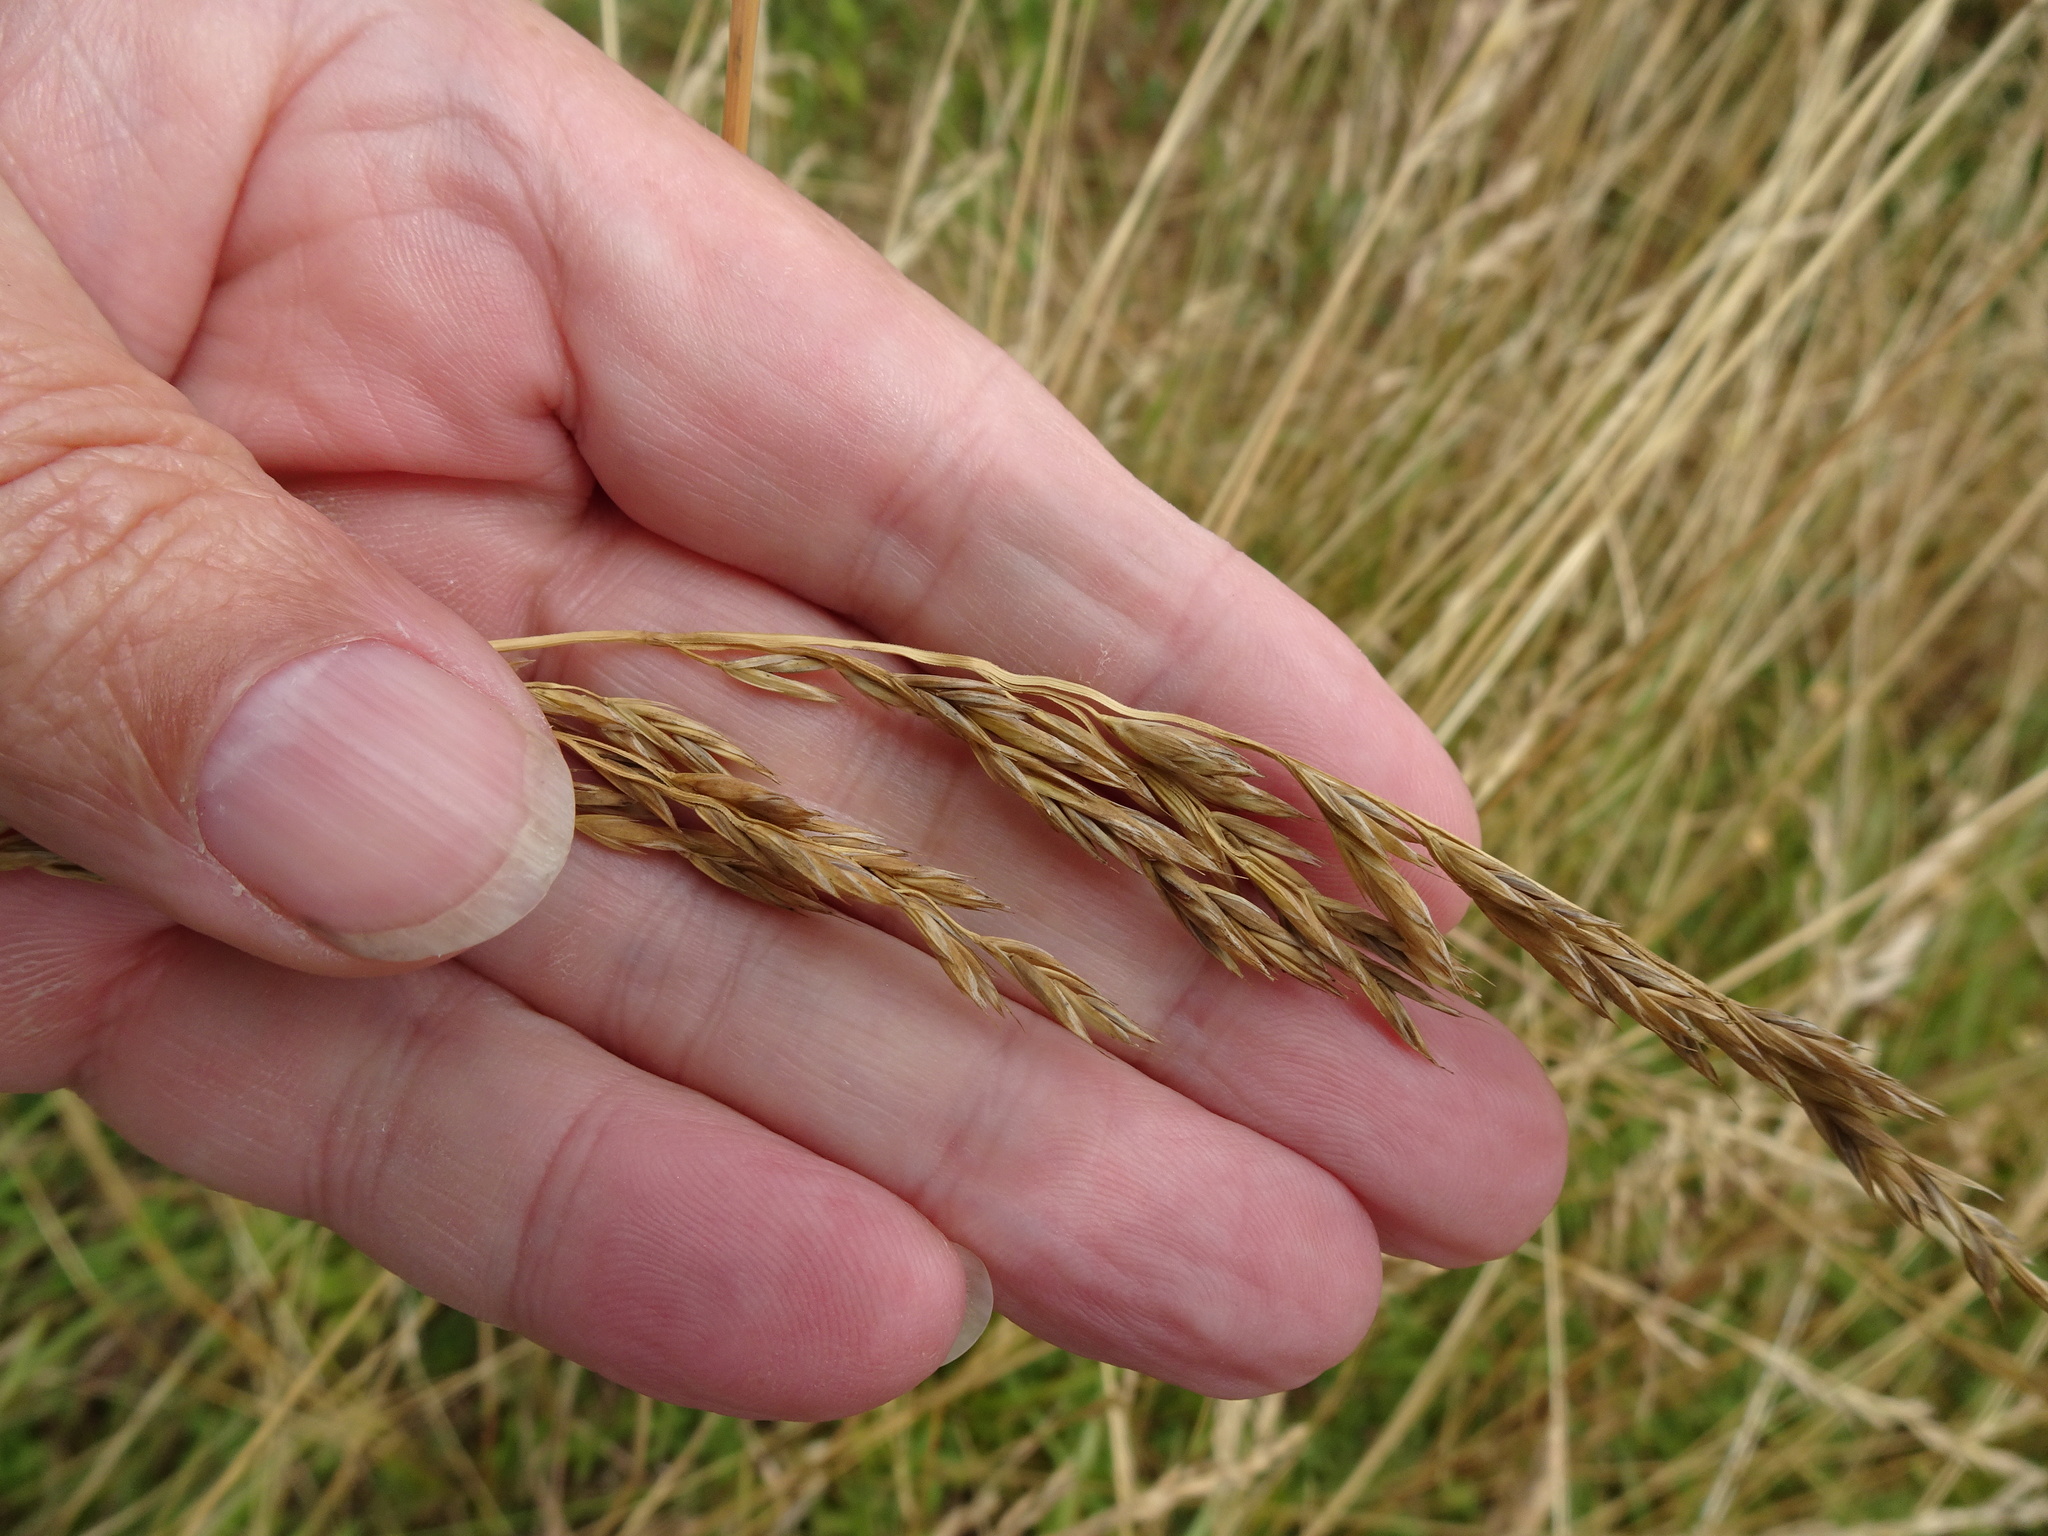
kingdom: Plantae
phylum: Tracheophyta
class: Liliopsida
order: Poales
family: Poaceae
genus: Lolium
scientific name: Lolium arundinaceum
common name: Reed fescue
